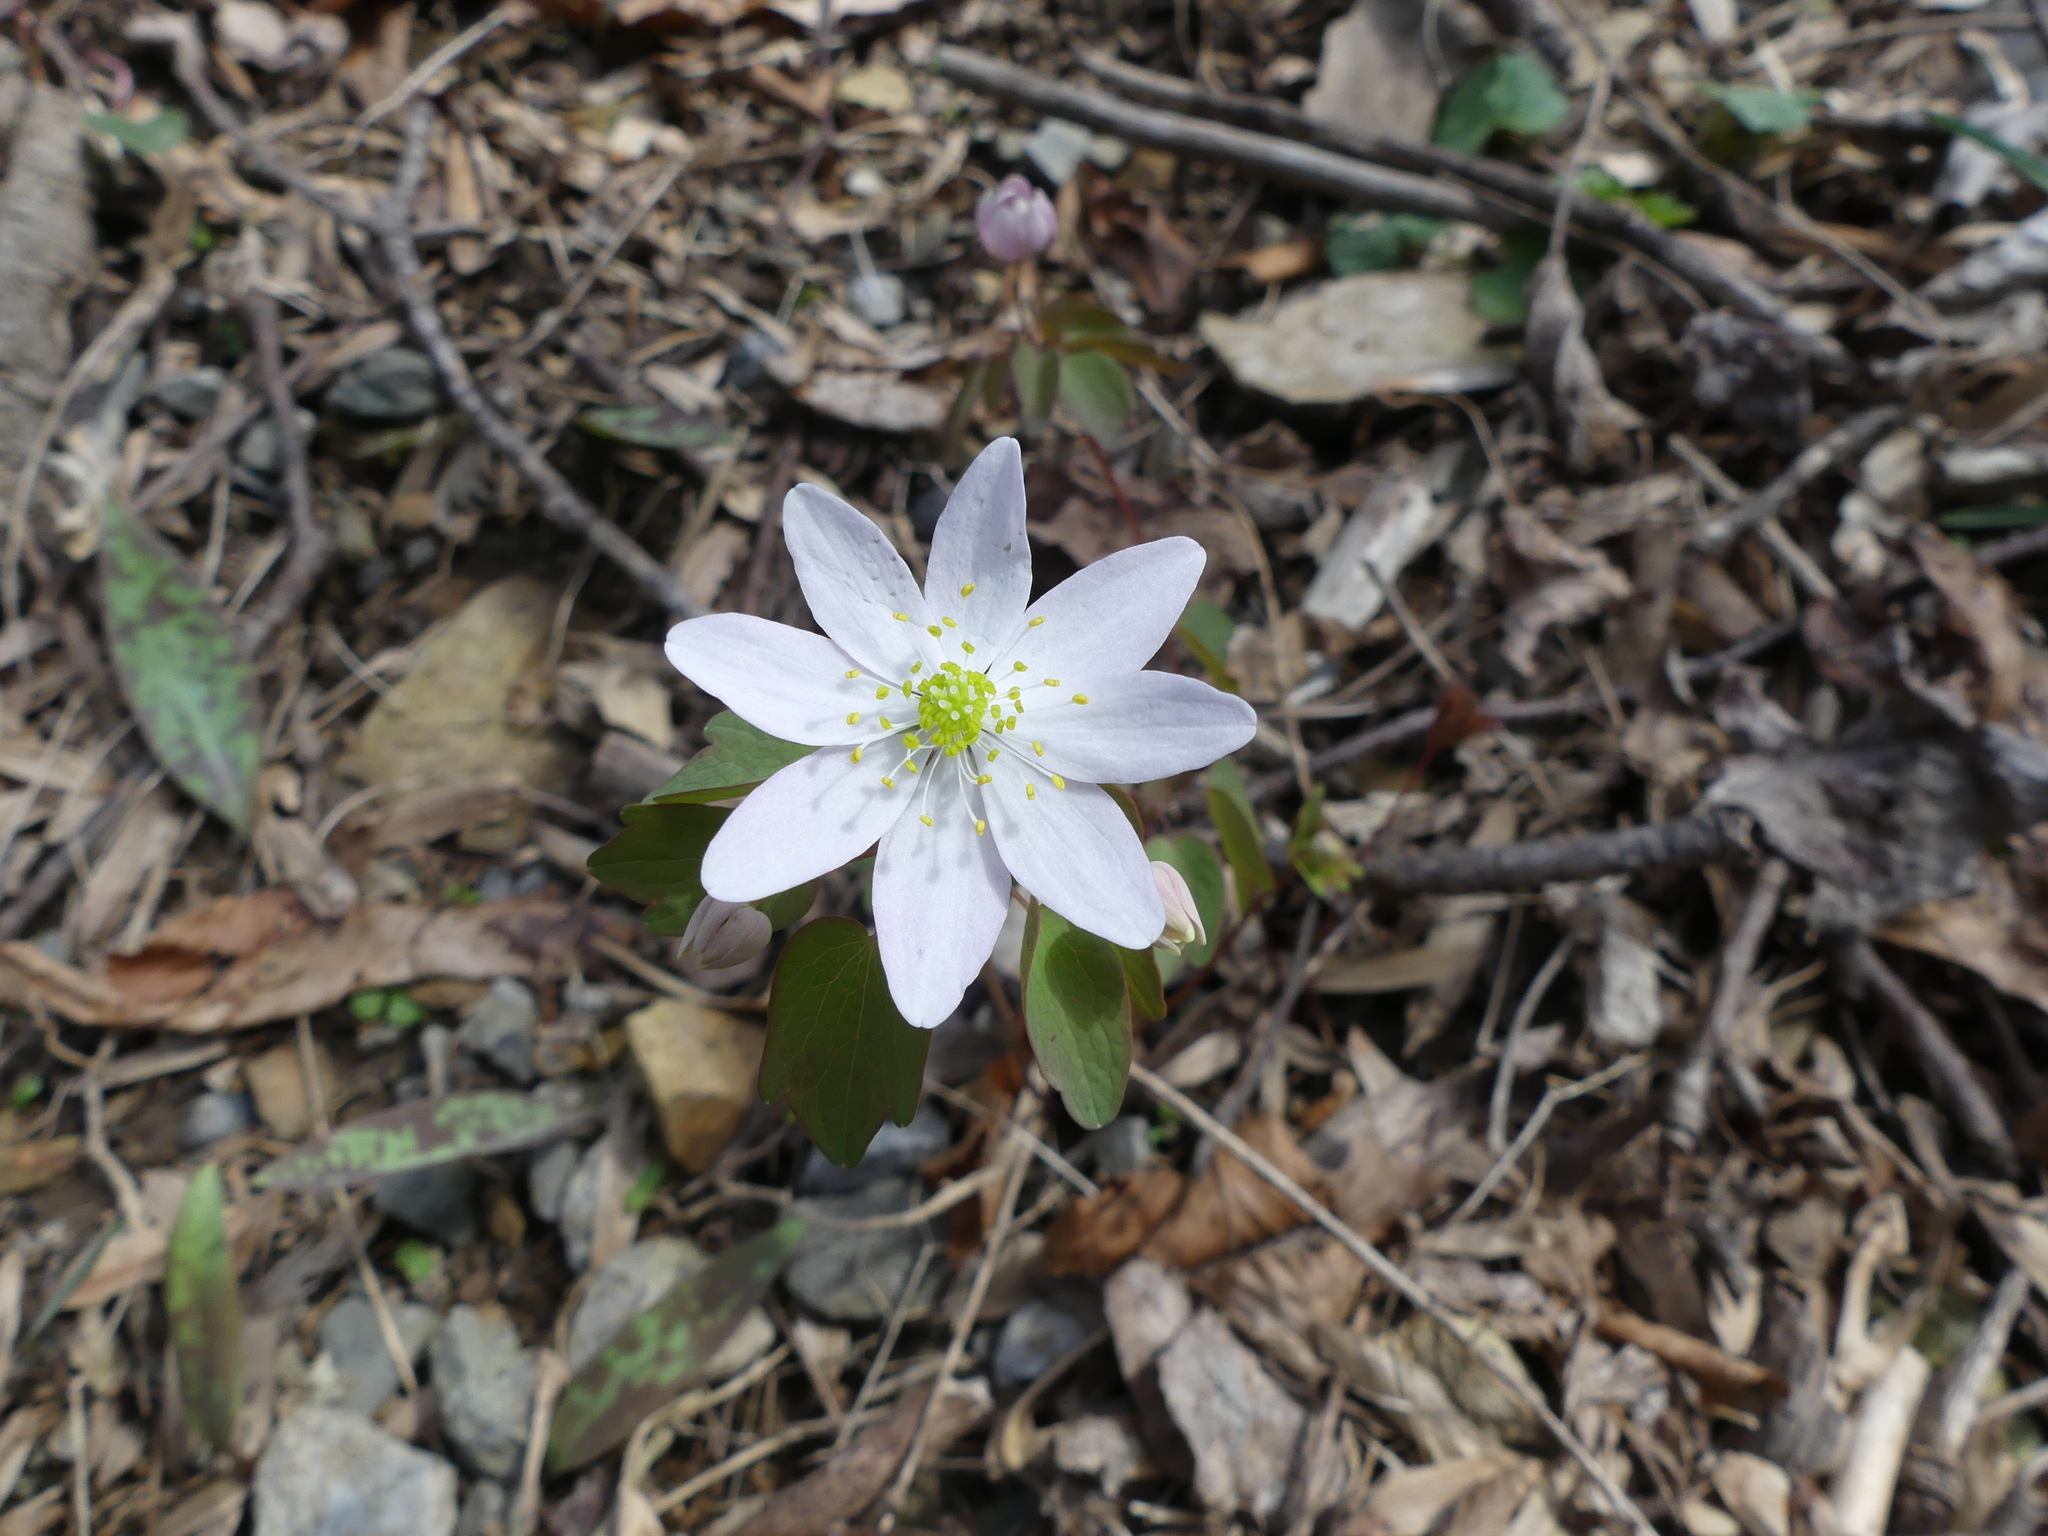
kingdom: Plantae
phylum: Tracheophyta
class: Magnoliopsida
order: Ranunculales
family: Ranunculaceae
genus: Thalictrum
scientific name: Thalictrum thalictroides
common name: Rue-anemone
